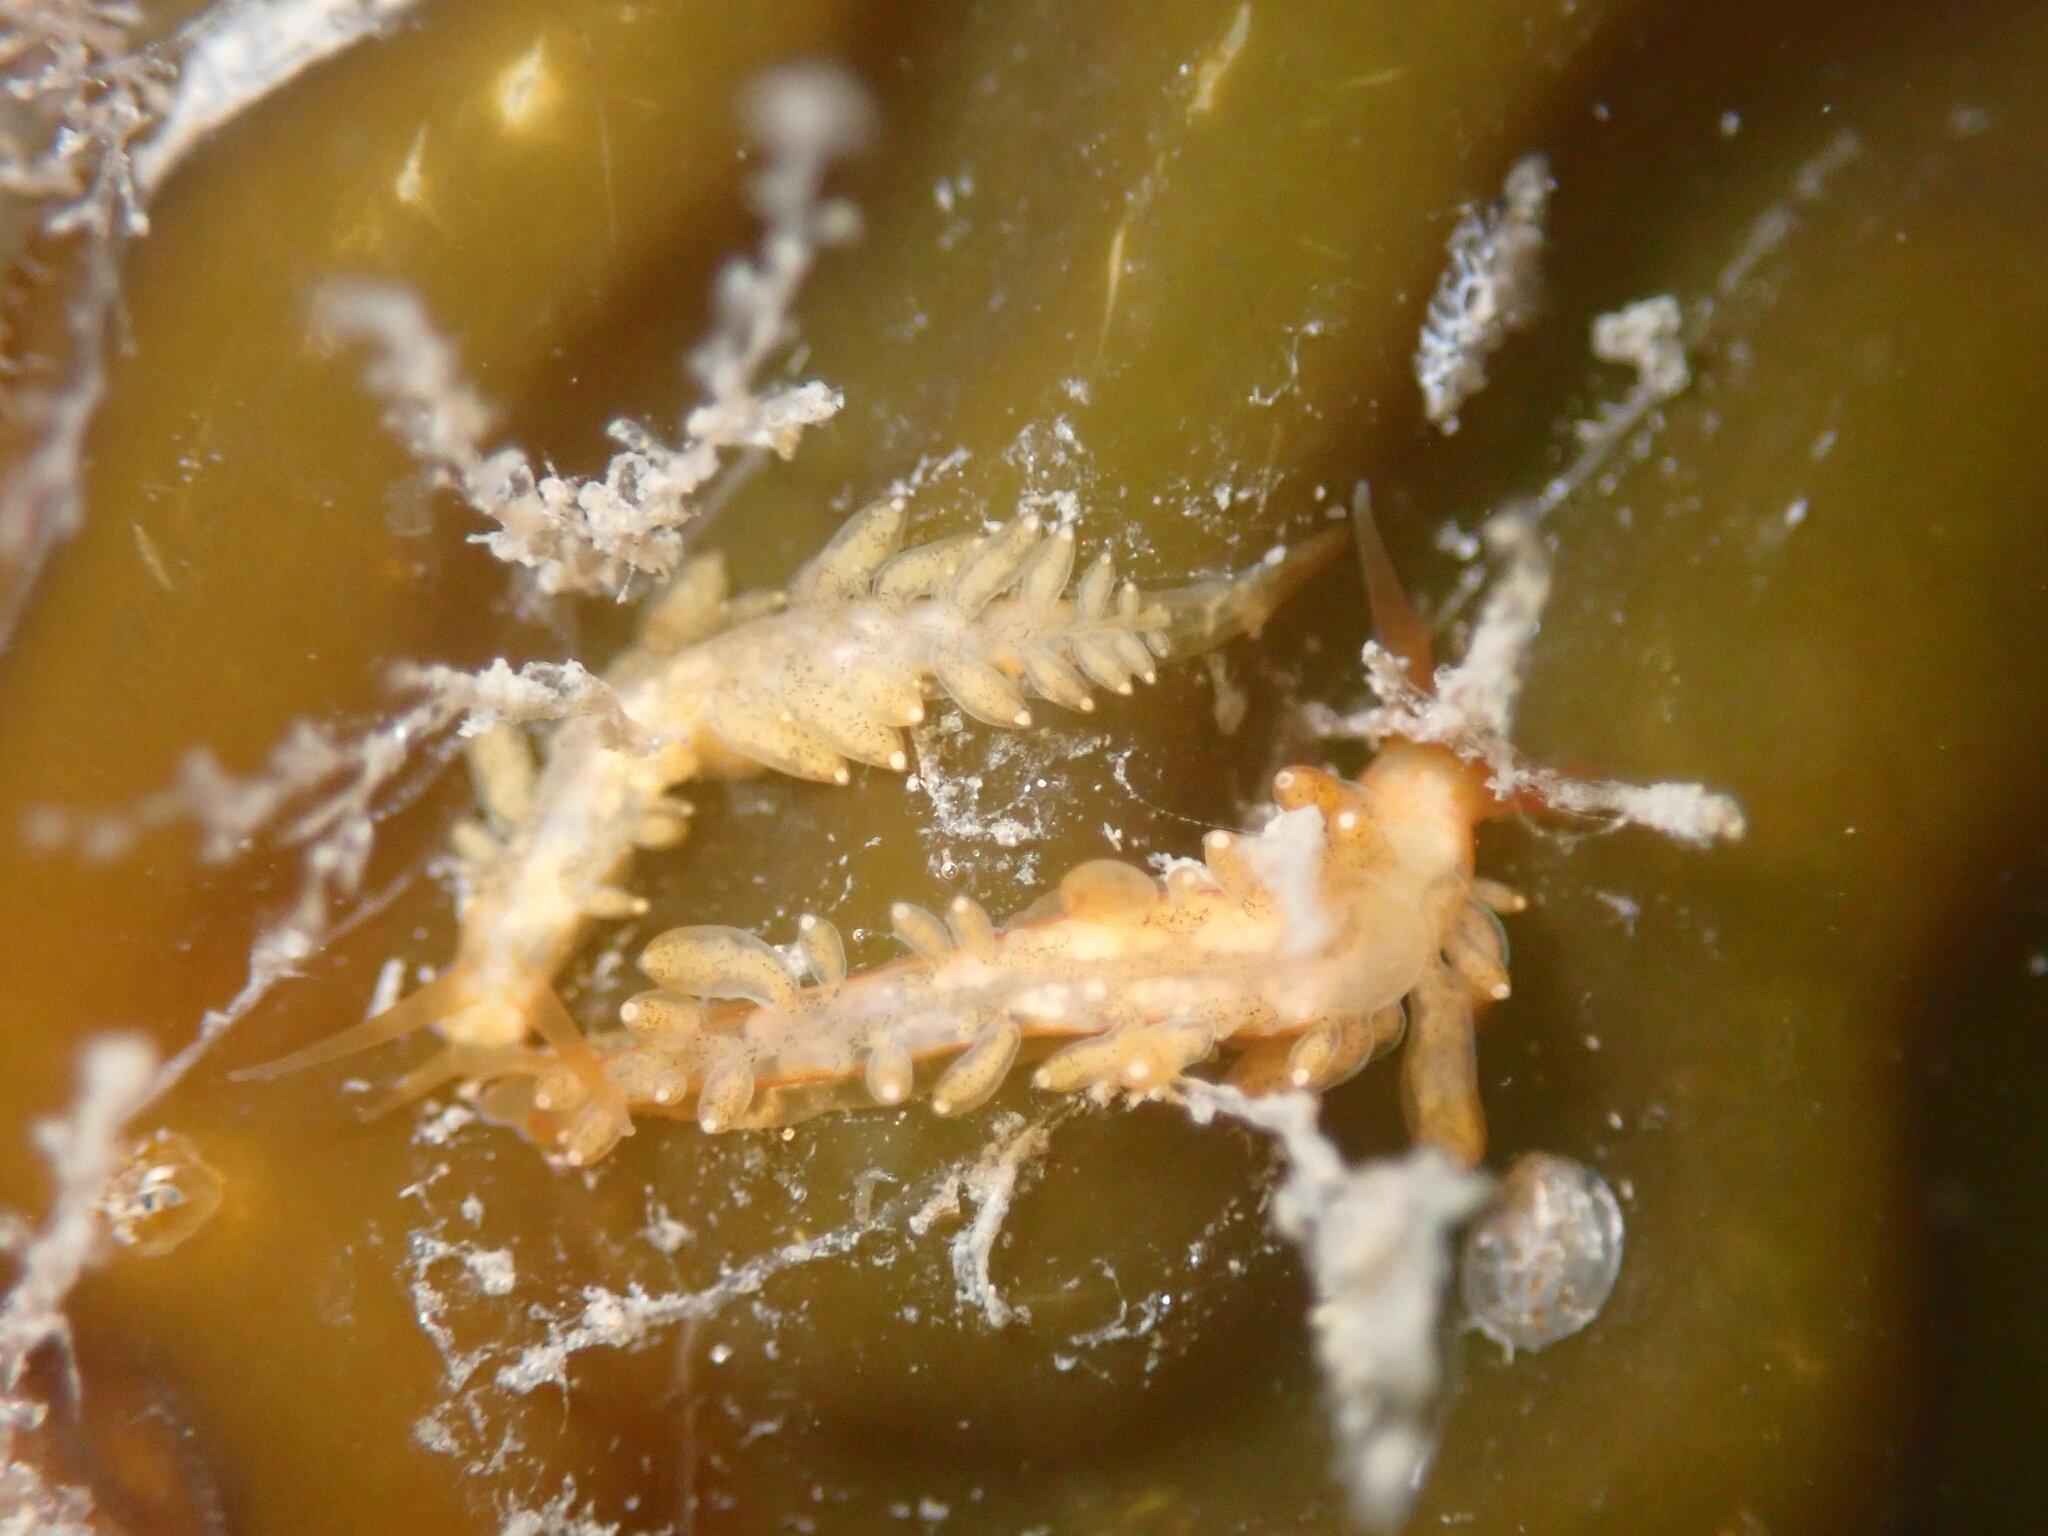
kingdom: Animalia
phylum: Mollusca
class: Gastropoda
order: Nudibranchia
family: Cuthonidae
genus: Cuthona
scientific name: Cuthona phoenix
